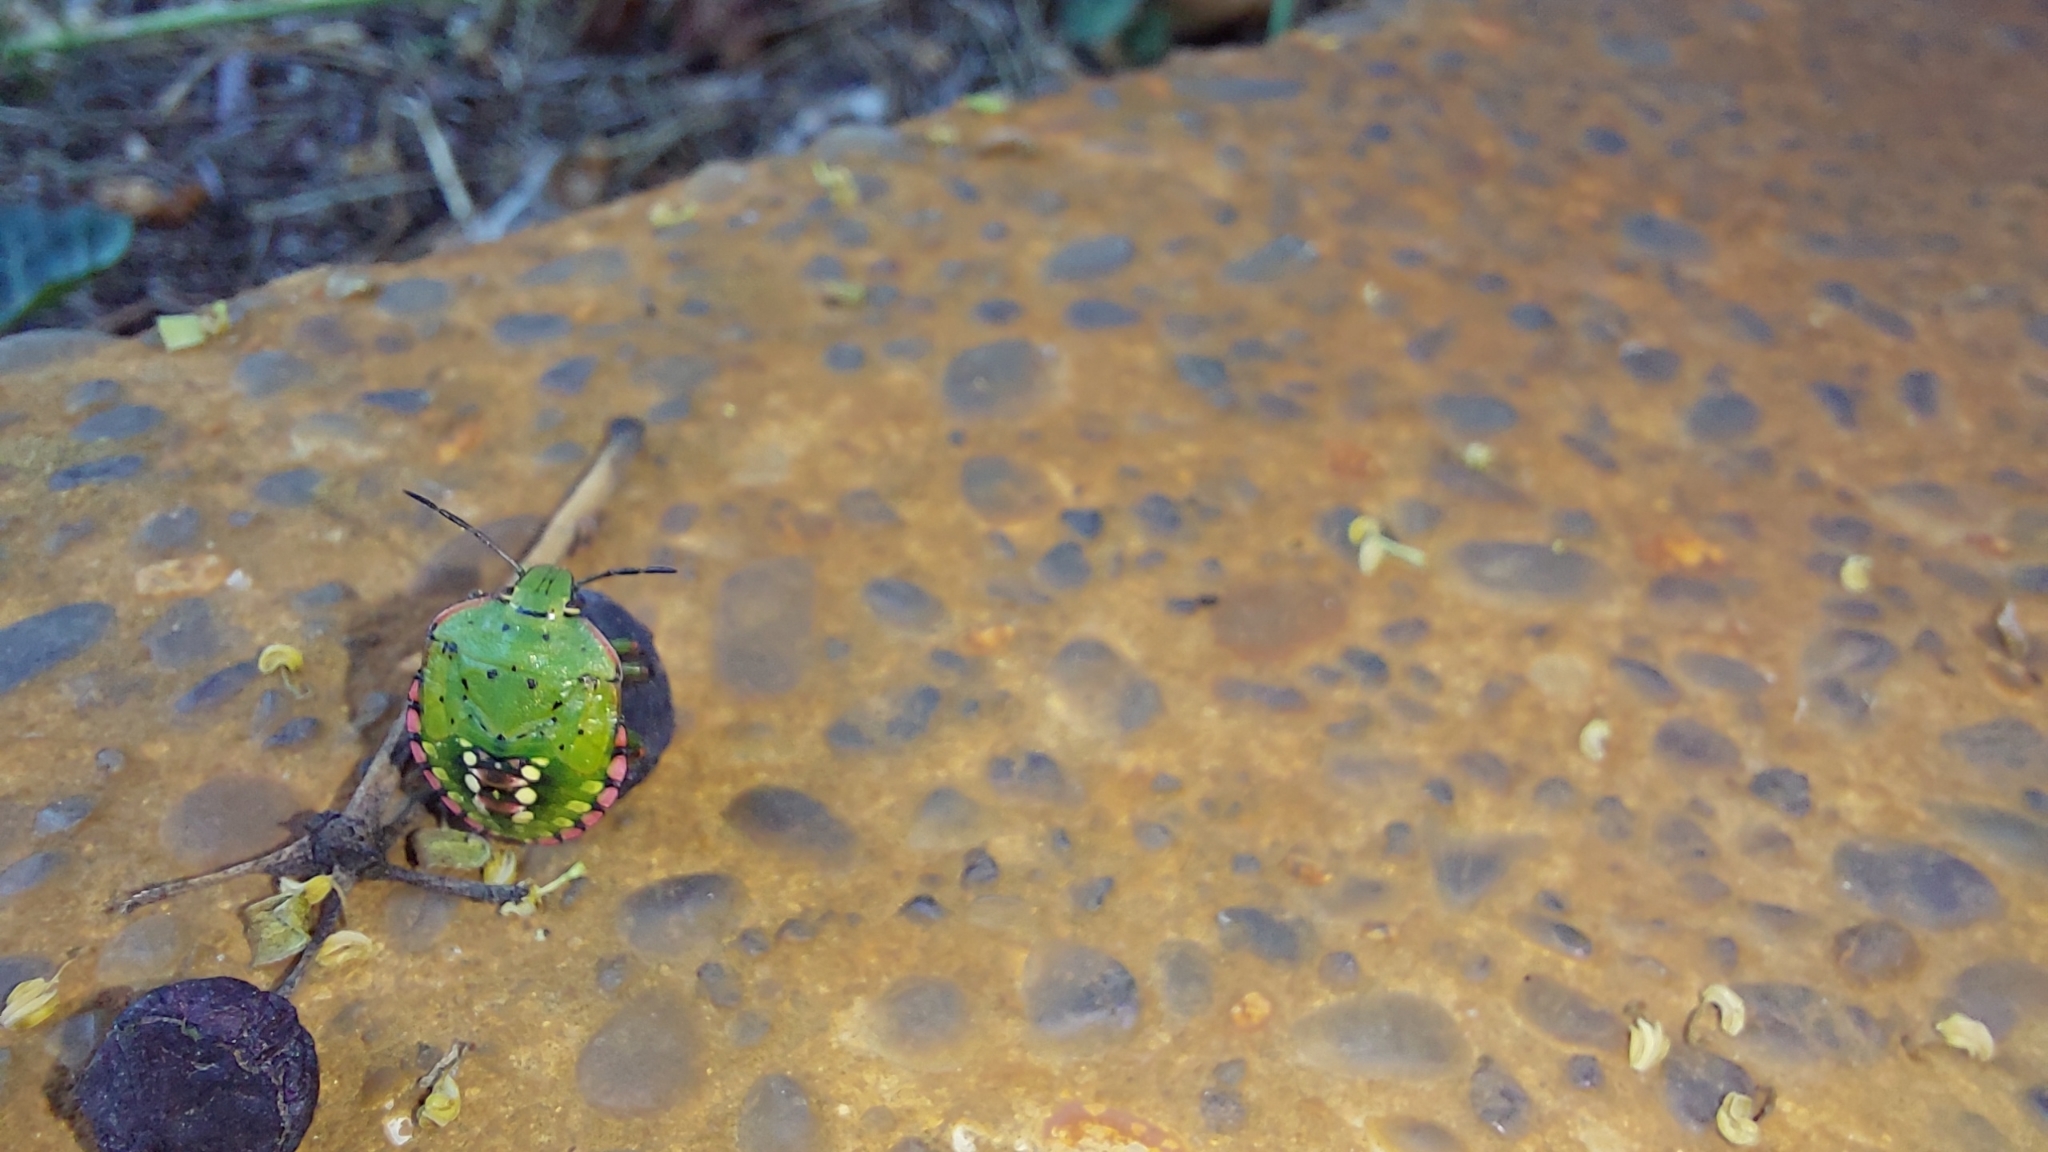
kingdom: Animalia
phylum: Arthropoda
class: Insecta
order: Hemiptera
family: Pentatomidae
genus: Nezara
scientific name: Nezara viridula
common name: Southern green stink bug
